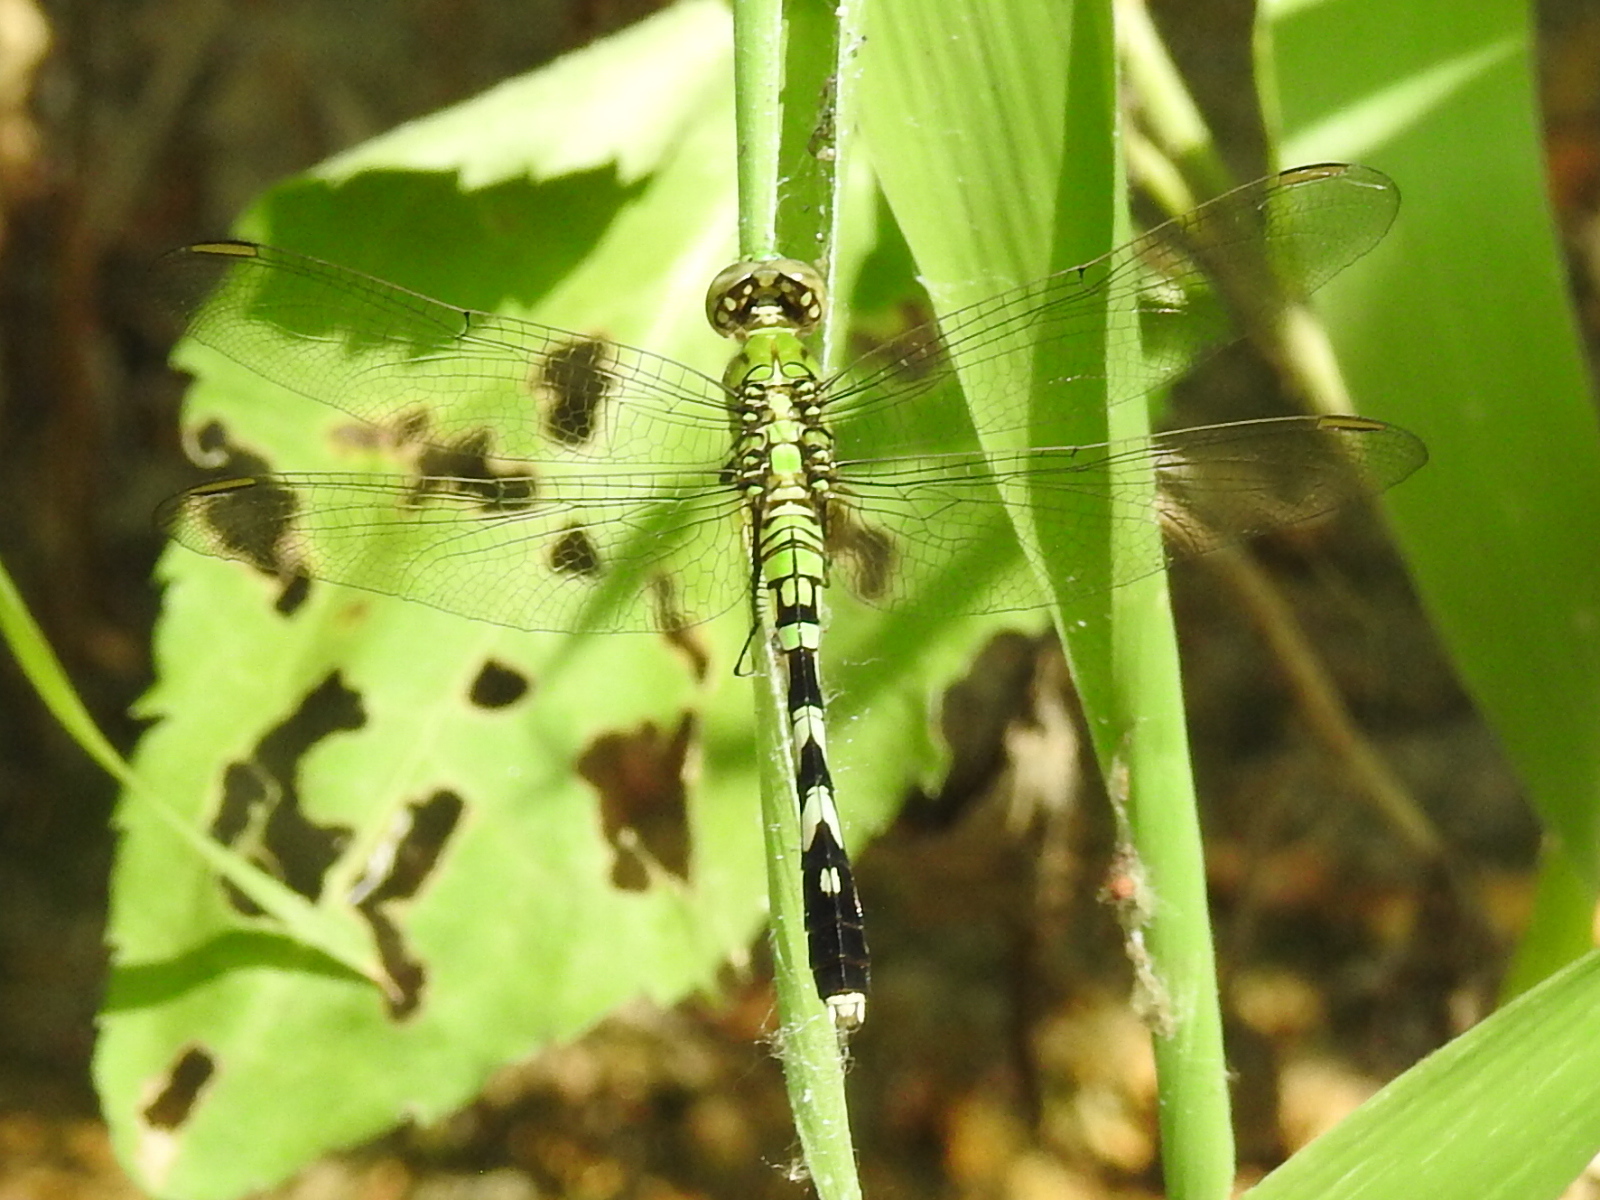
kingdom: Animalia
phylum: Arthropoda
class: Insecta
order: Odonata
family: Libellulidae
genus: Erythemis
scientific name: Erythemis simplicicollis
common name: Eastern pondhawk
